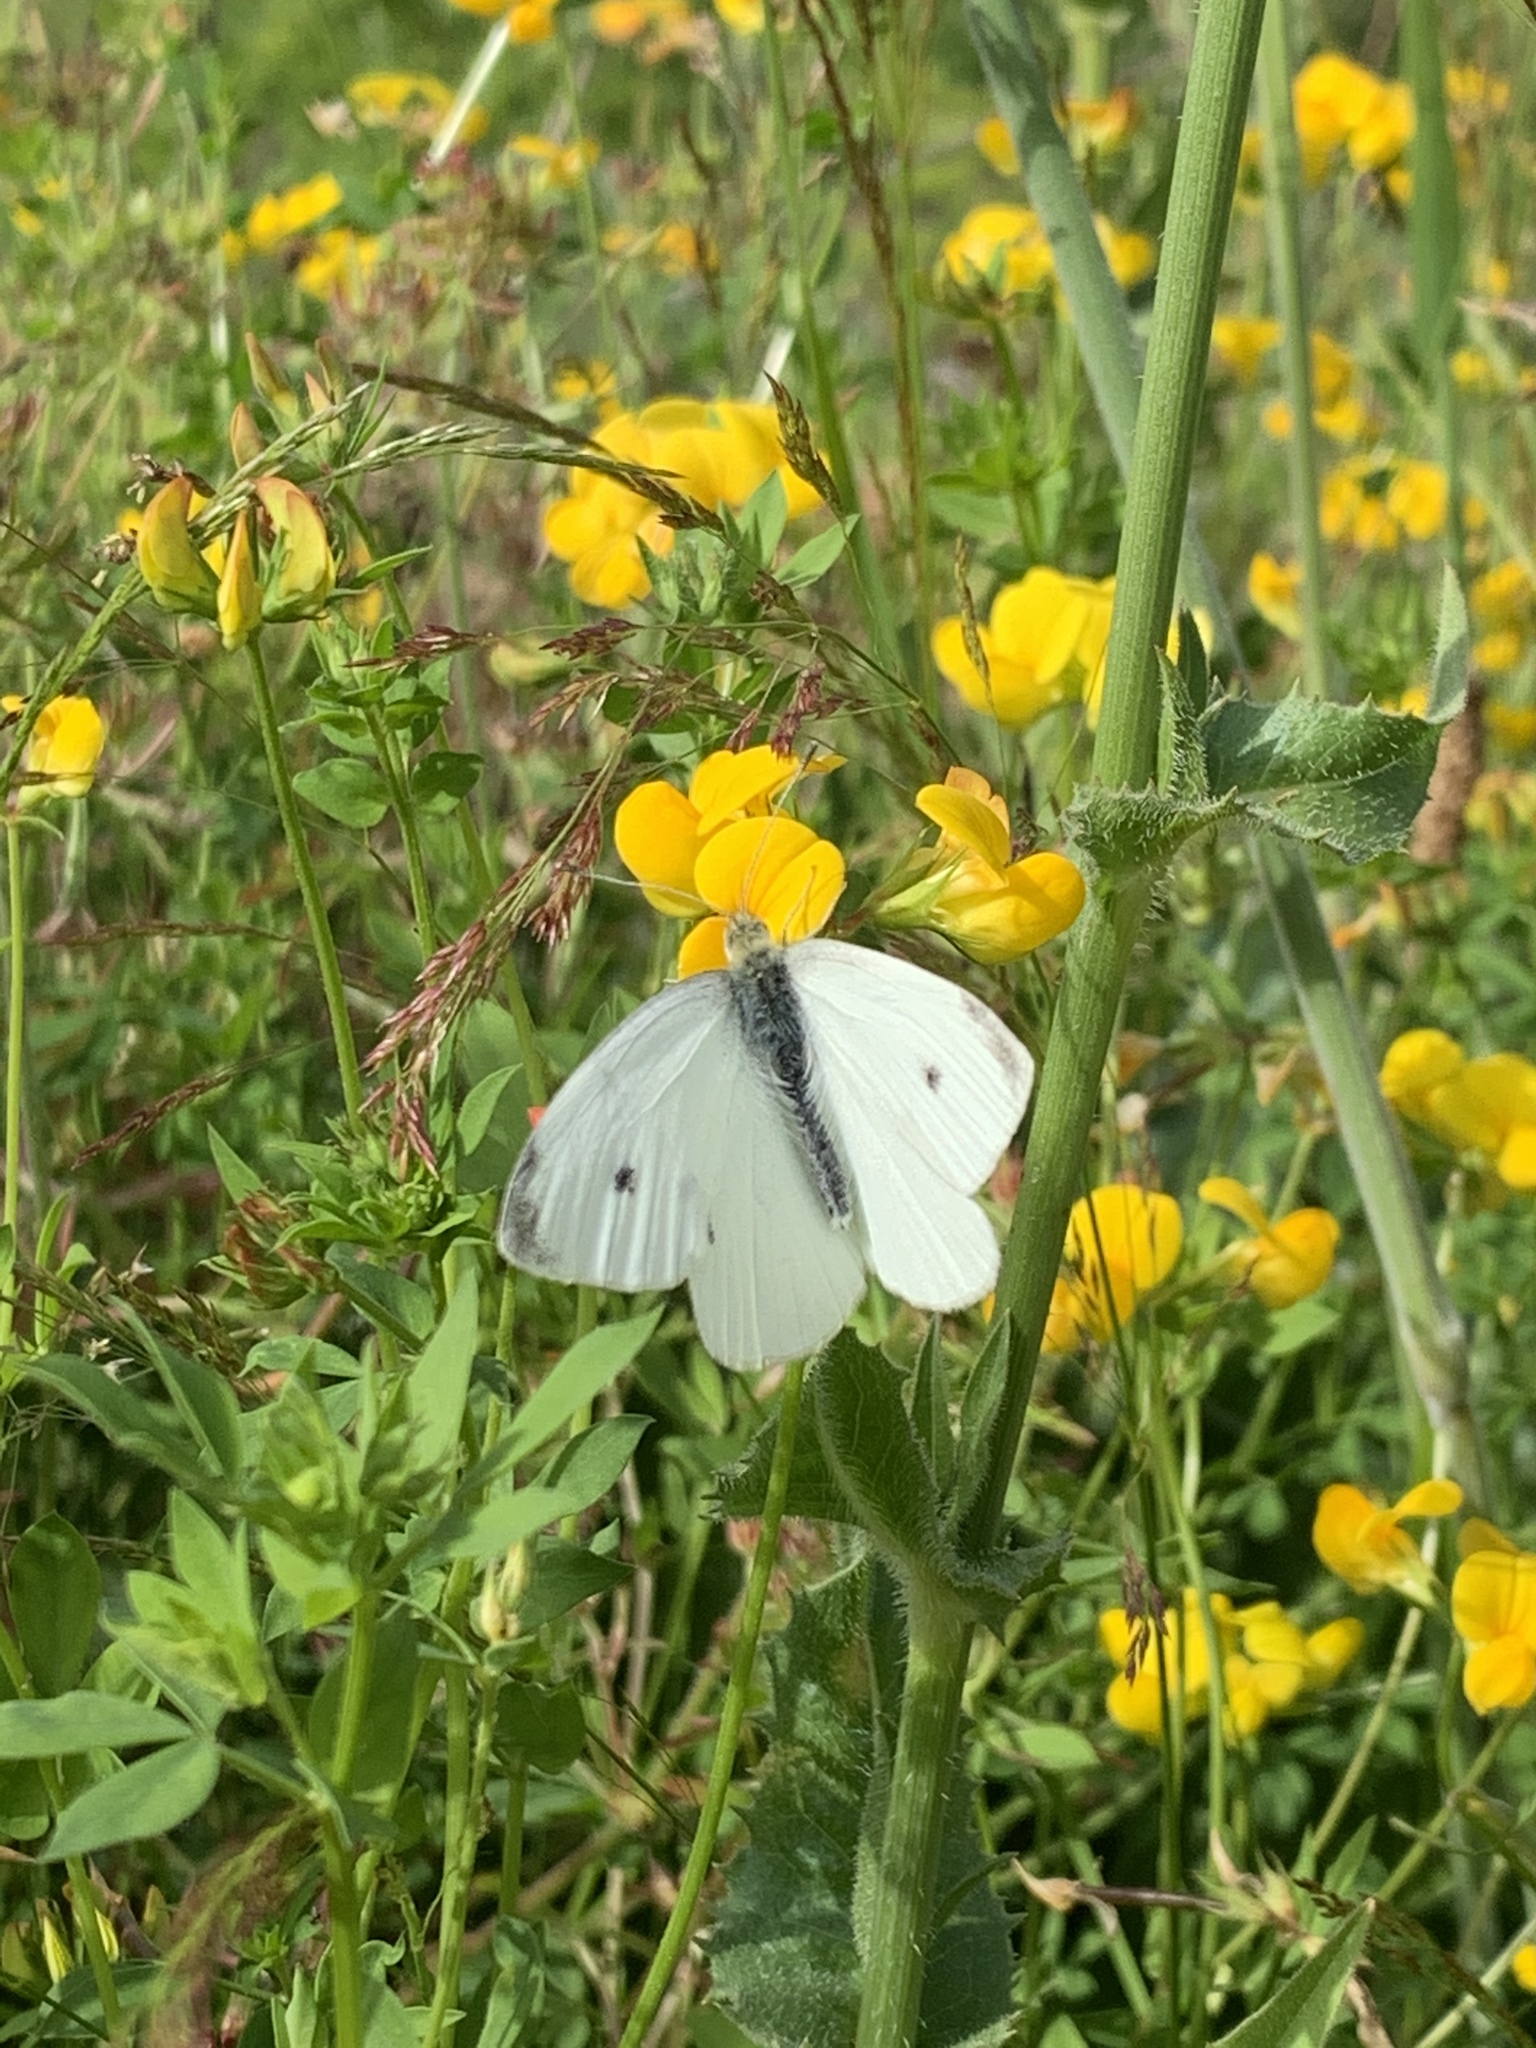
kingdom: Animalia
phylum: Arthropoda
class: Insecta
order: Lepidoptera
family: Pieridae
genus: Pieris
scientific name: Pieris rapae
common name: Small white
